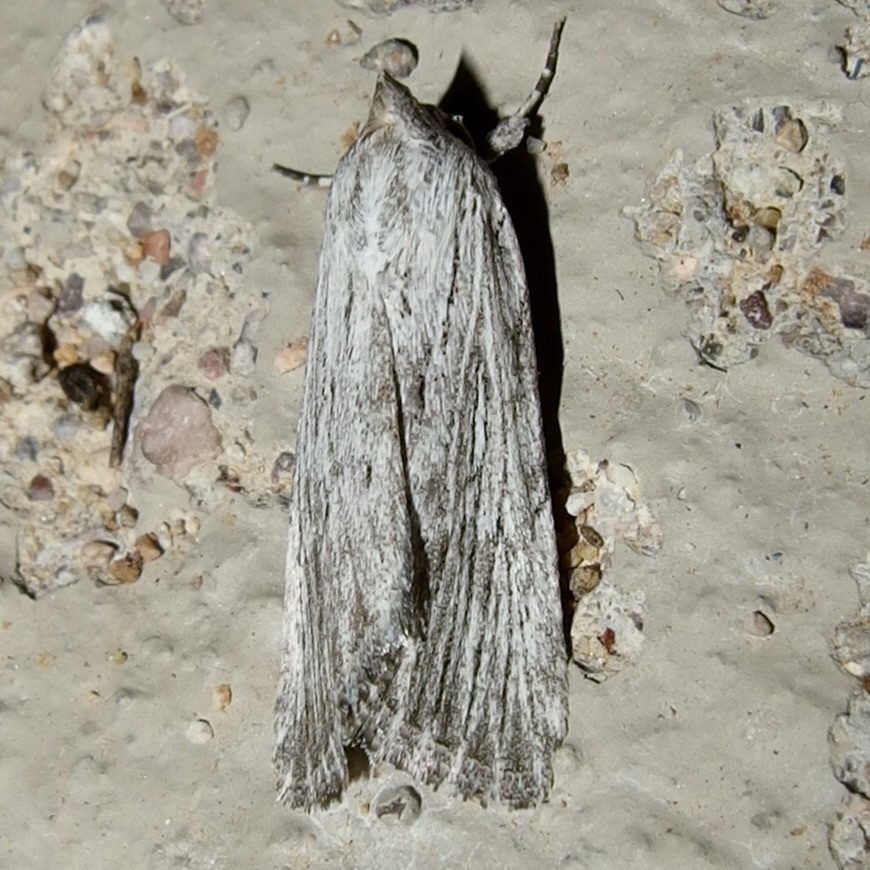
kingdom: Animalia
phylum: Arthropoda
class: Insecta
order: Lepidoptera
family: Noctuidae
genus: Catabena
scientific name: Catabena lineolata
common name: Fine-lined sallow
